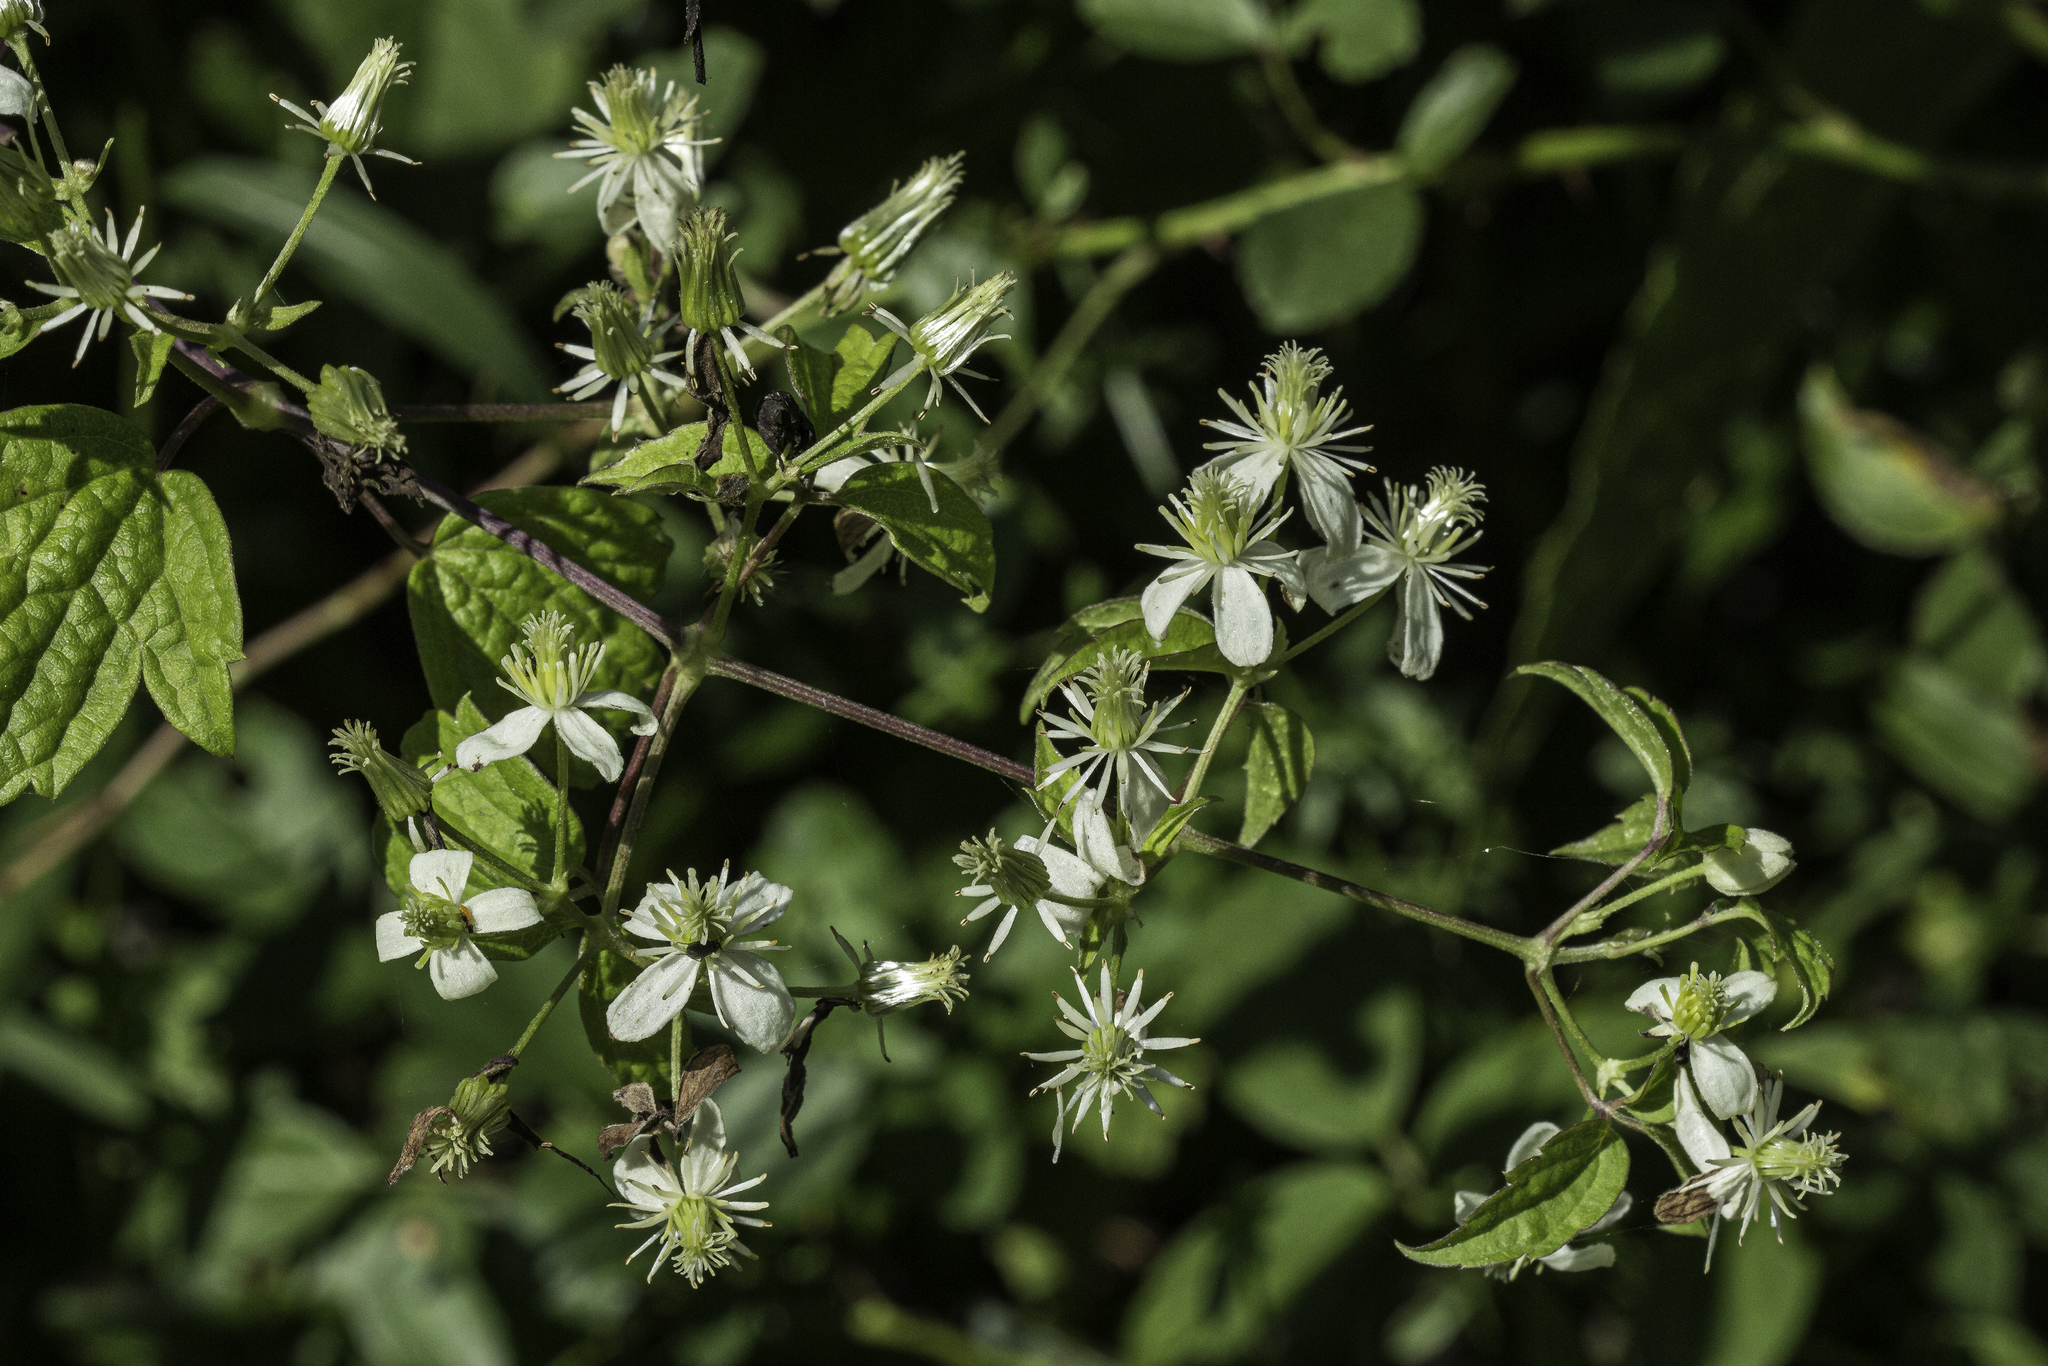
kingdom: Plantae
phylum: Tracheophyta
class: Magnoliopsida
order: Ranunculales
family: Ranunculaceae
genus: Clematis
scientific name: Clematis virginiana
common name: Virgin's-bower
